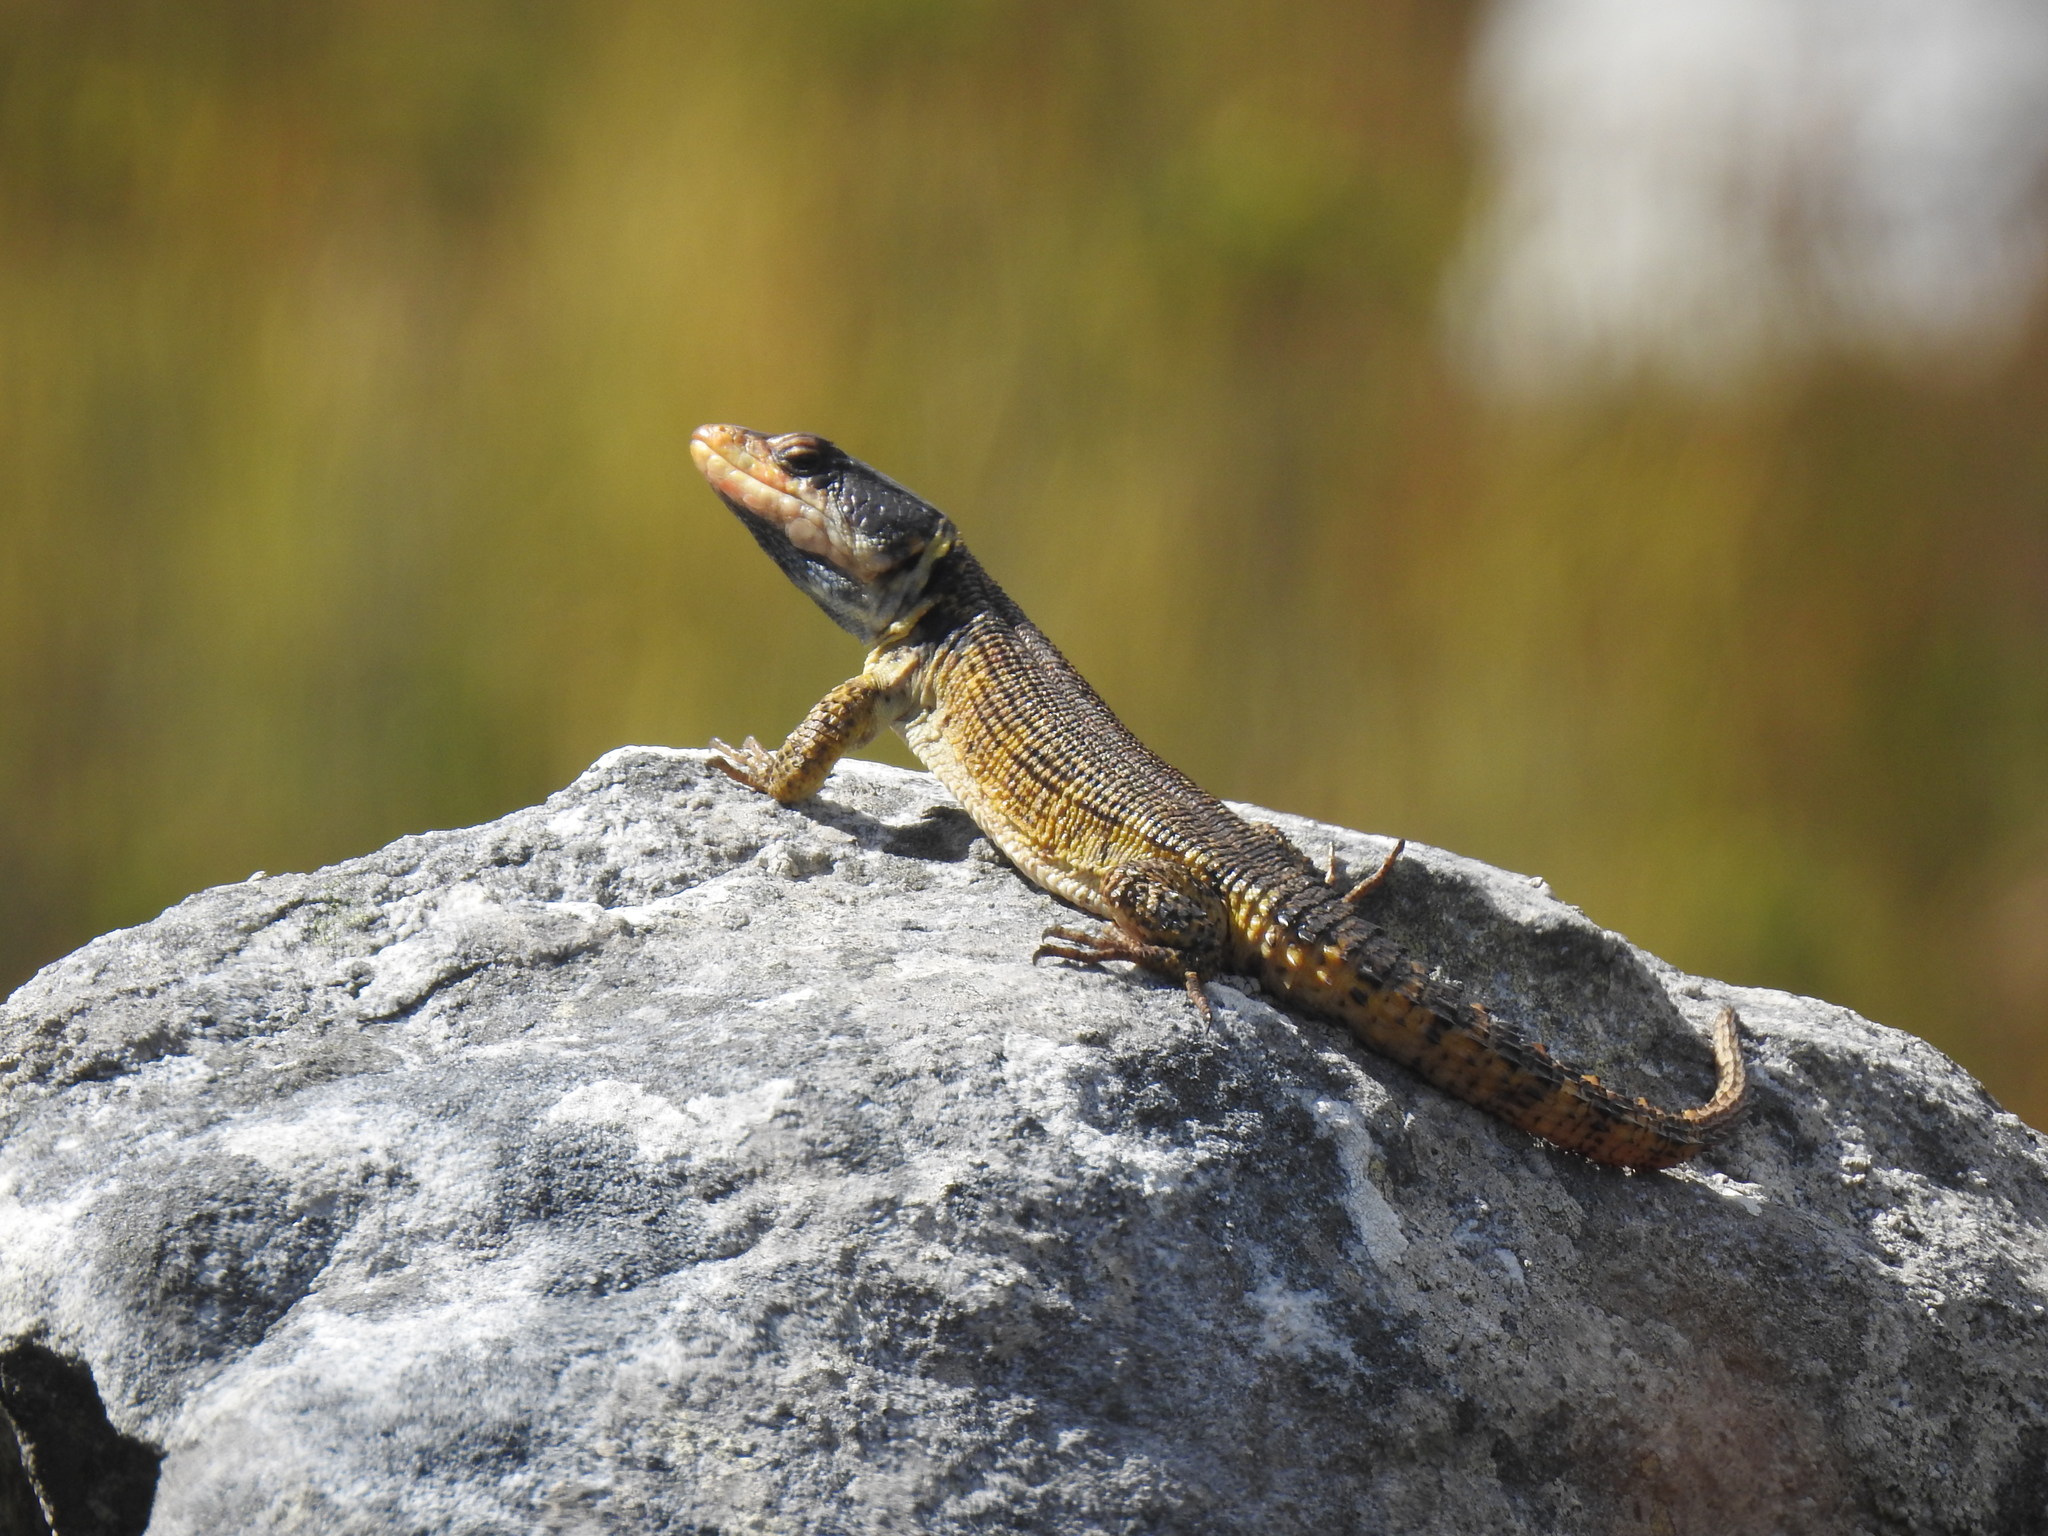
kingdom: Animalia
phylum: Chordata
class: Squamata
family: Cordylidae
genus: Pseudocordylus
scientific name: Pseudocordylus microlepidotus
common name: Cape crag lizard
